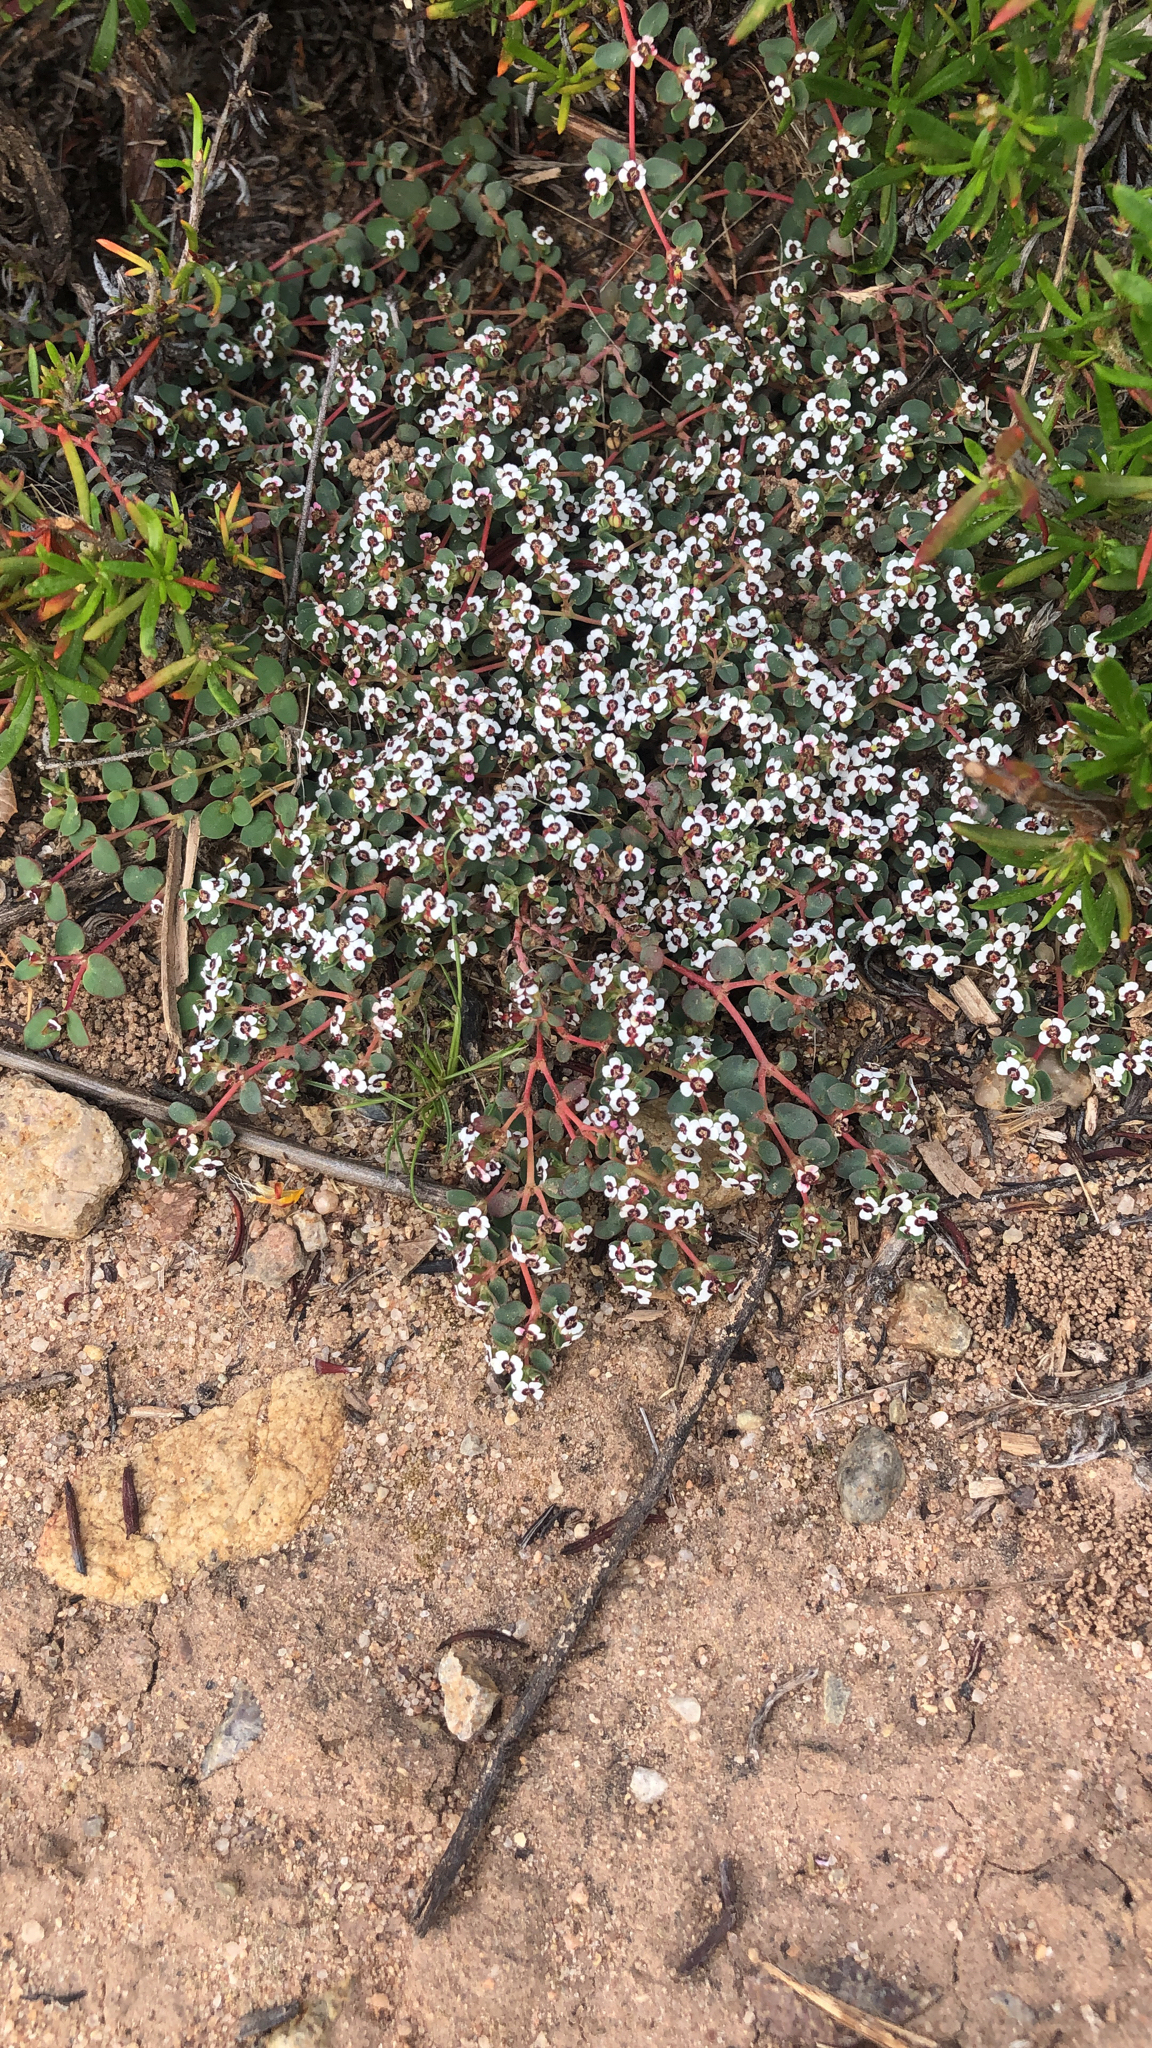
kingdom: Plantae
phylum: Tracheophyta
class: Magnoliopsida
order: Malpighiales
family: Euphorbiaceae
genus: Euphorbia
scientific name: Euphorbia polycarpa
